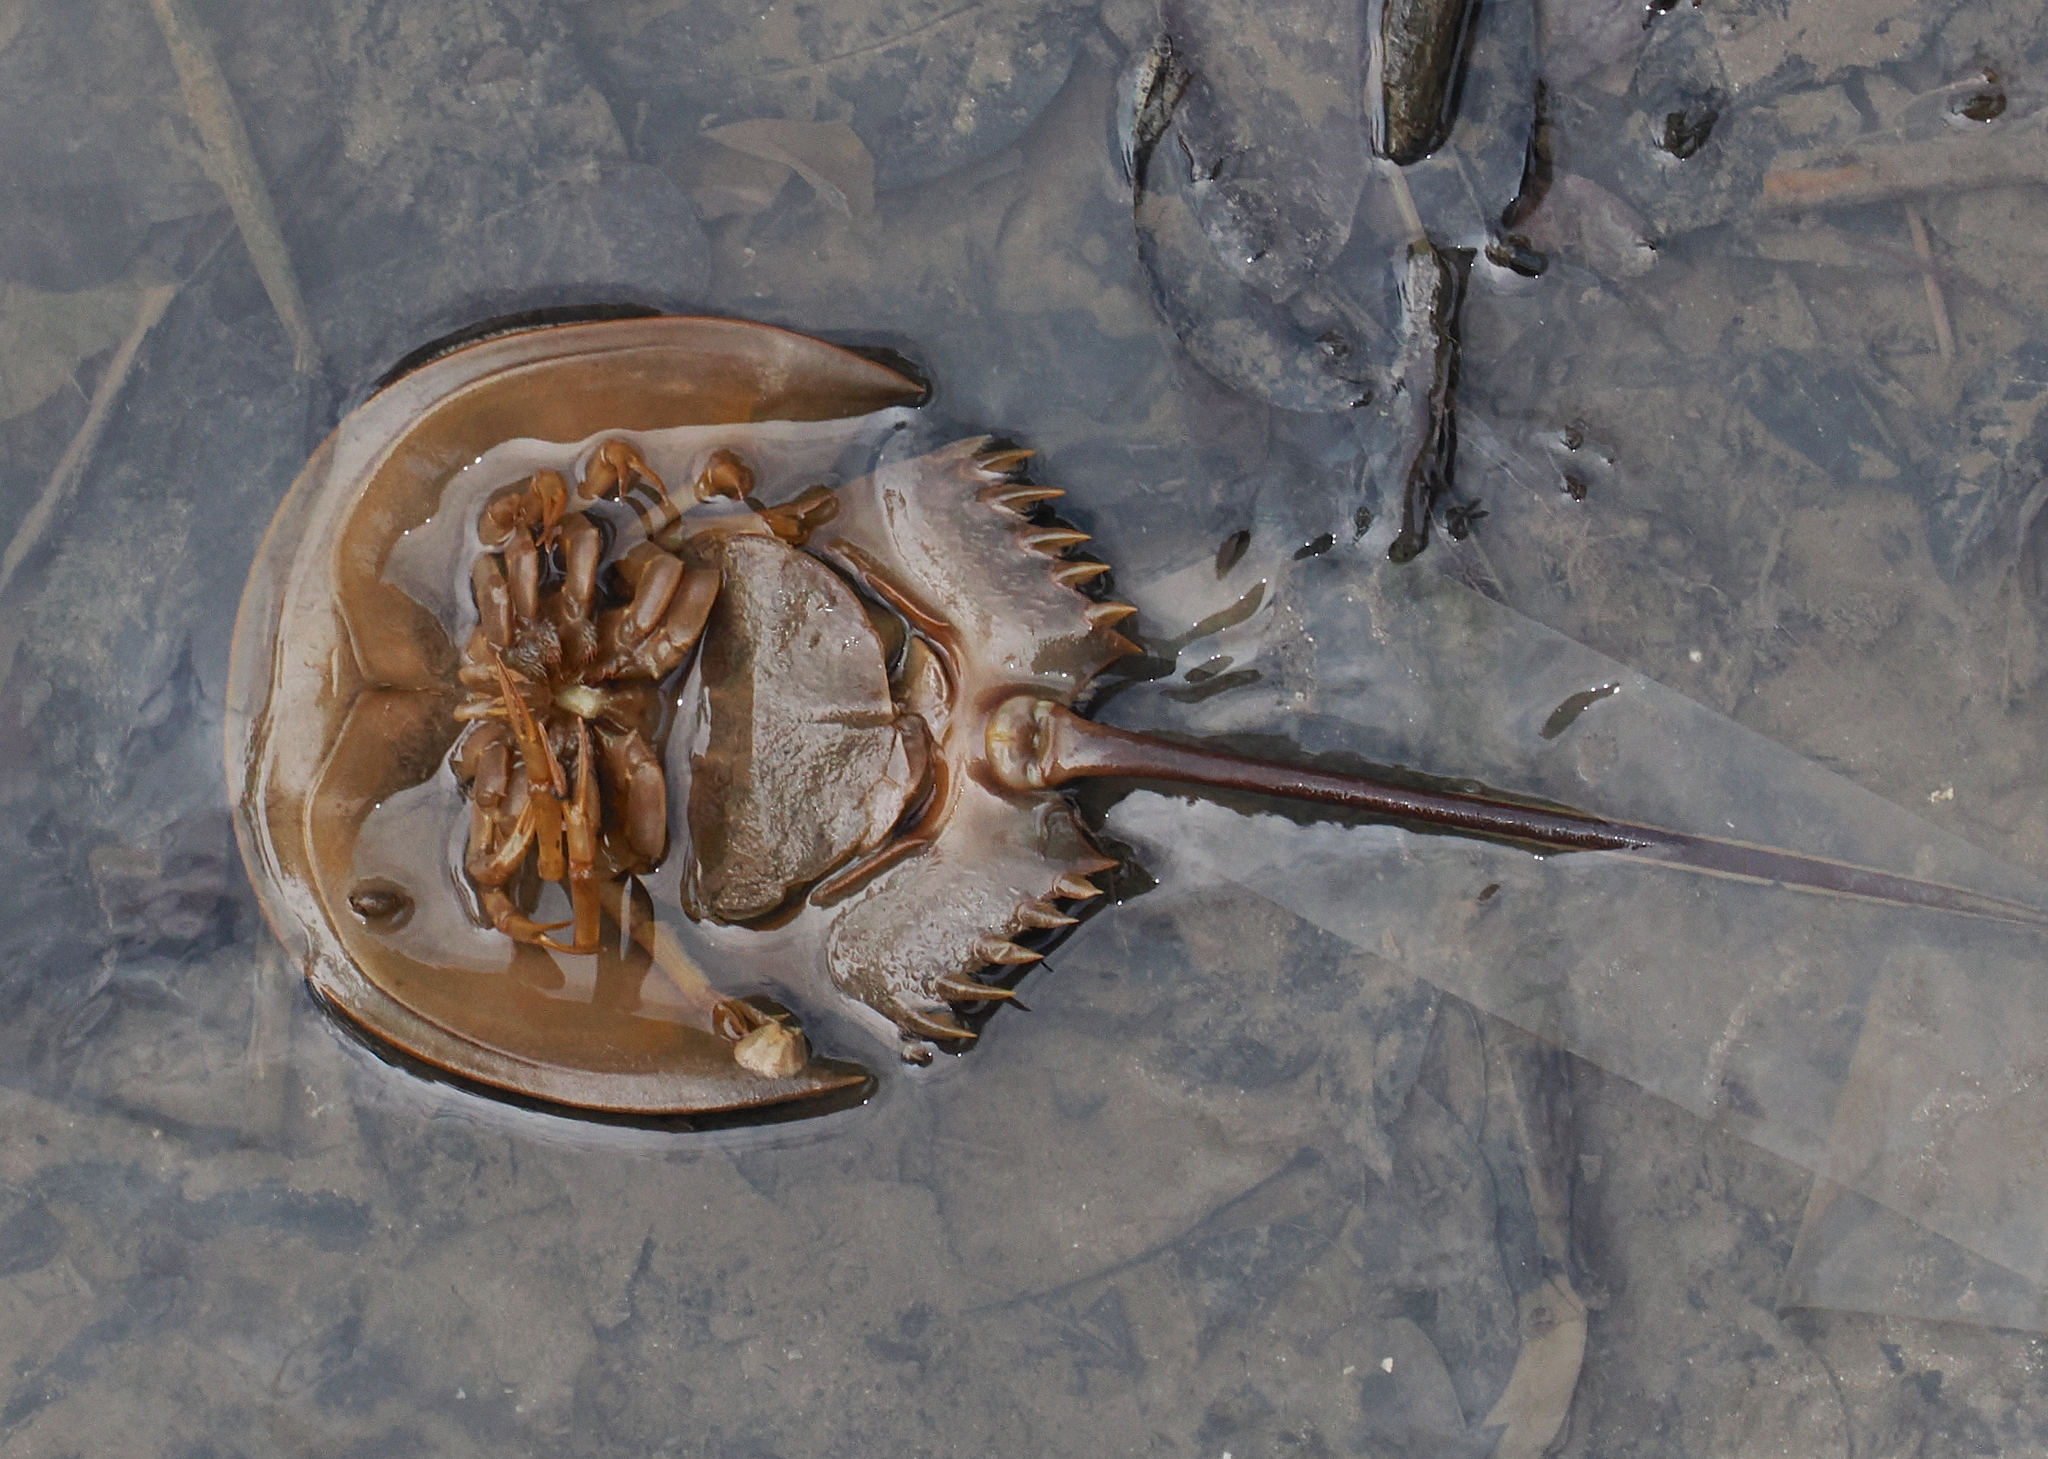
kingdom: Animalia
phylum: Arthropoda
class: Merostomata
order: Xiphosurida
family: Limulidae
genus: Carcinoscorpius
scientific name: Carcinoscorpius rotundicauda
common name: Horseshoe crab
